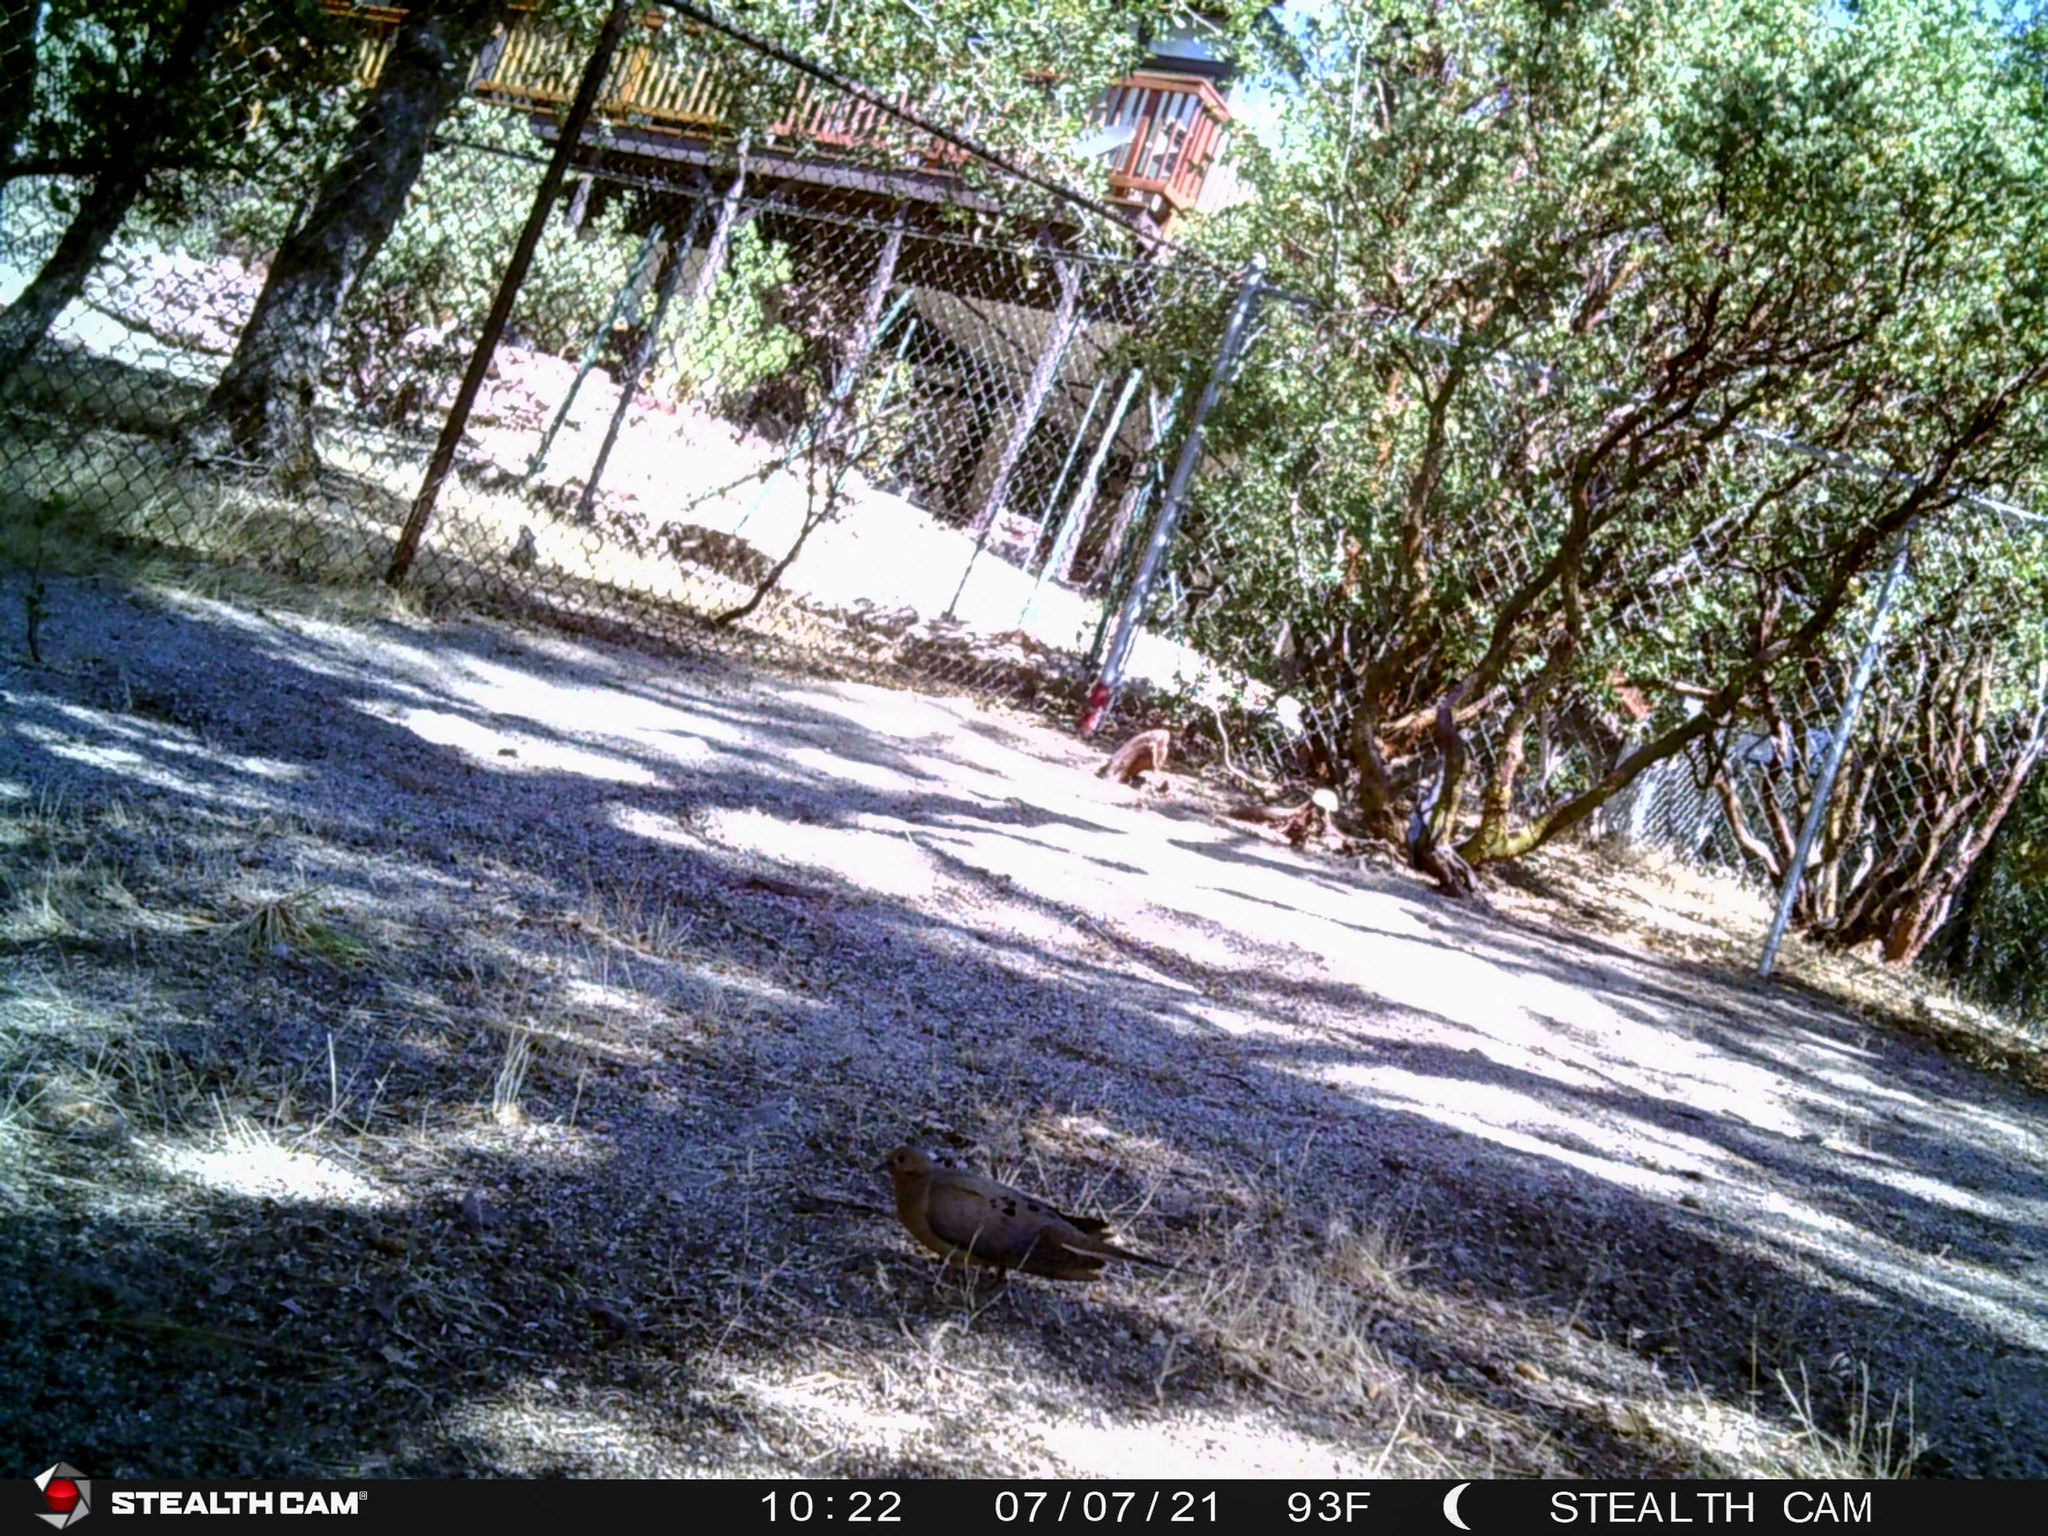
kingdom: Animalia
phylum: Chordata
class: Aves
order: Columbiformes
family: Columbidae
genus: Zenaida
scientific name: Zenaida macroura
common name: Mourning dove
